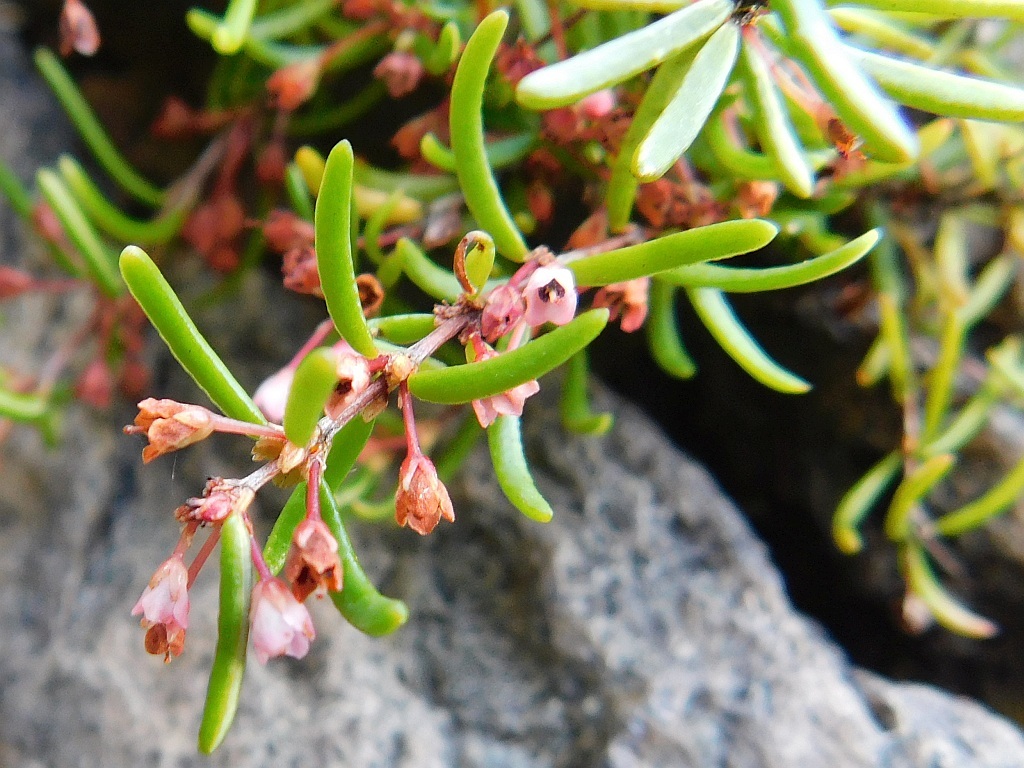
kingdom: Plantae
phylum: Tracheophyta
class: Magnoliopsida
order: Ericales
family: Ericaceae
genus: Erica
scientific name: Erica tenuicaulis
